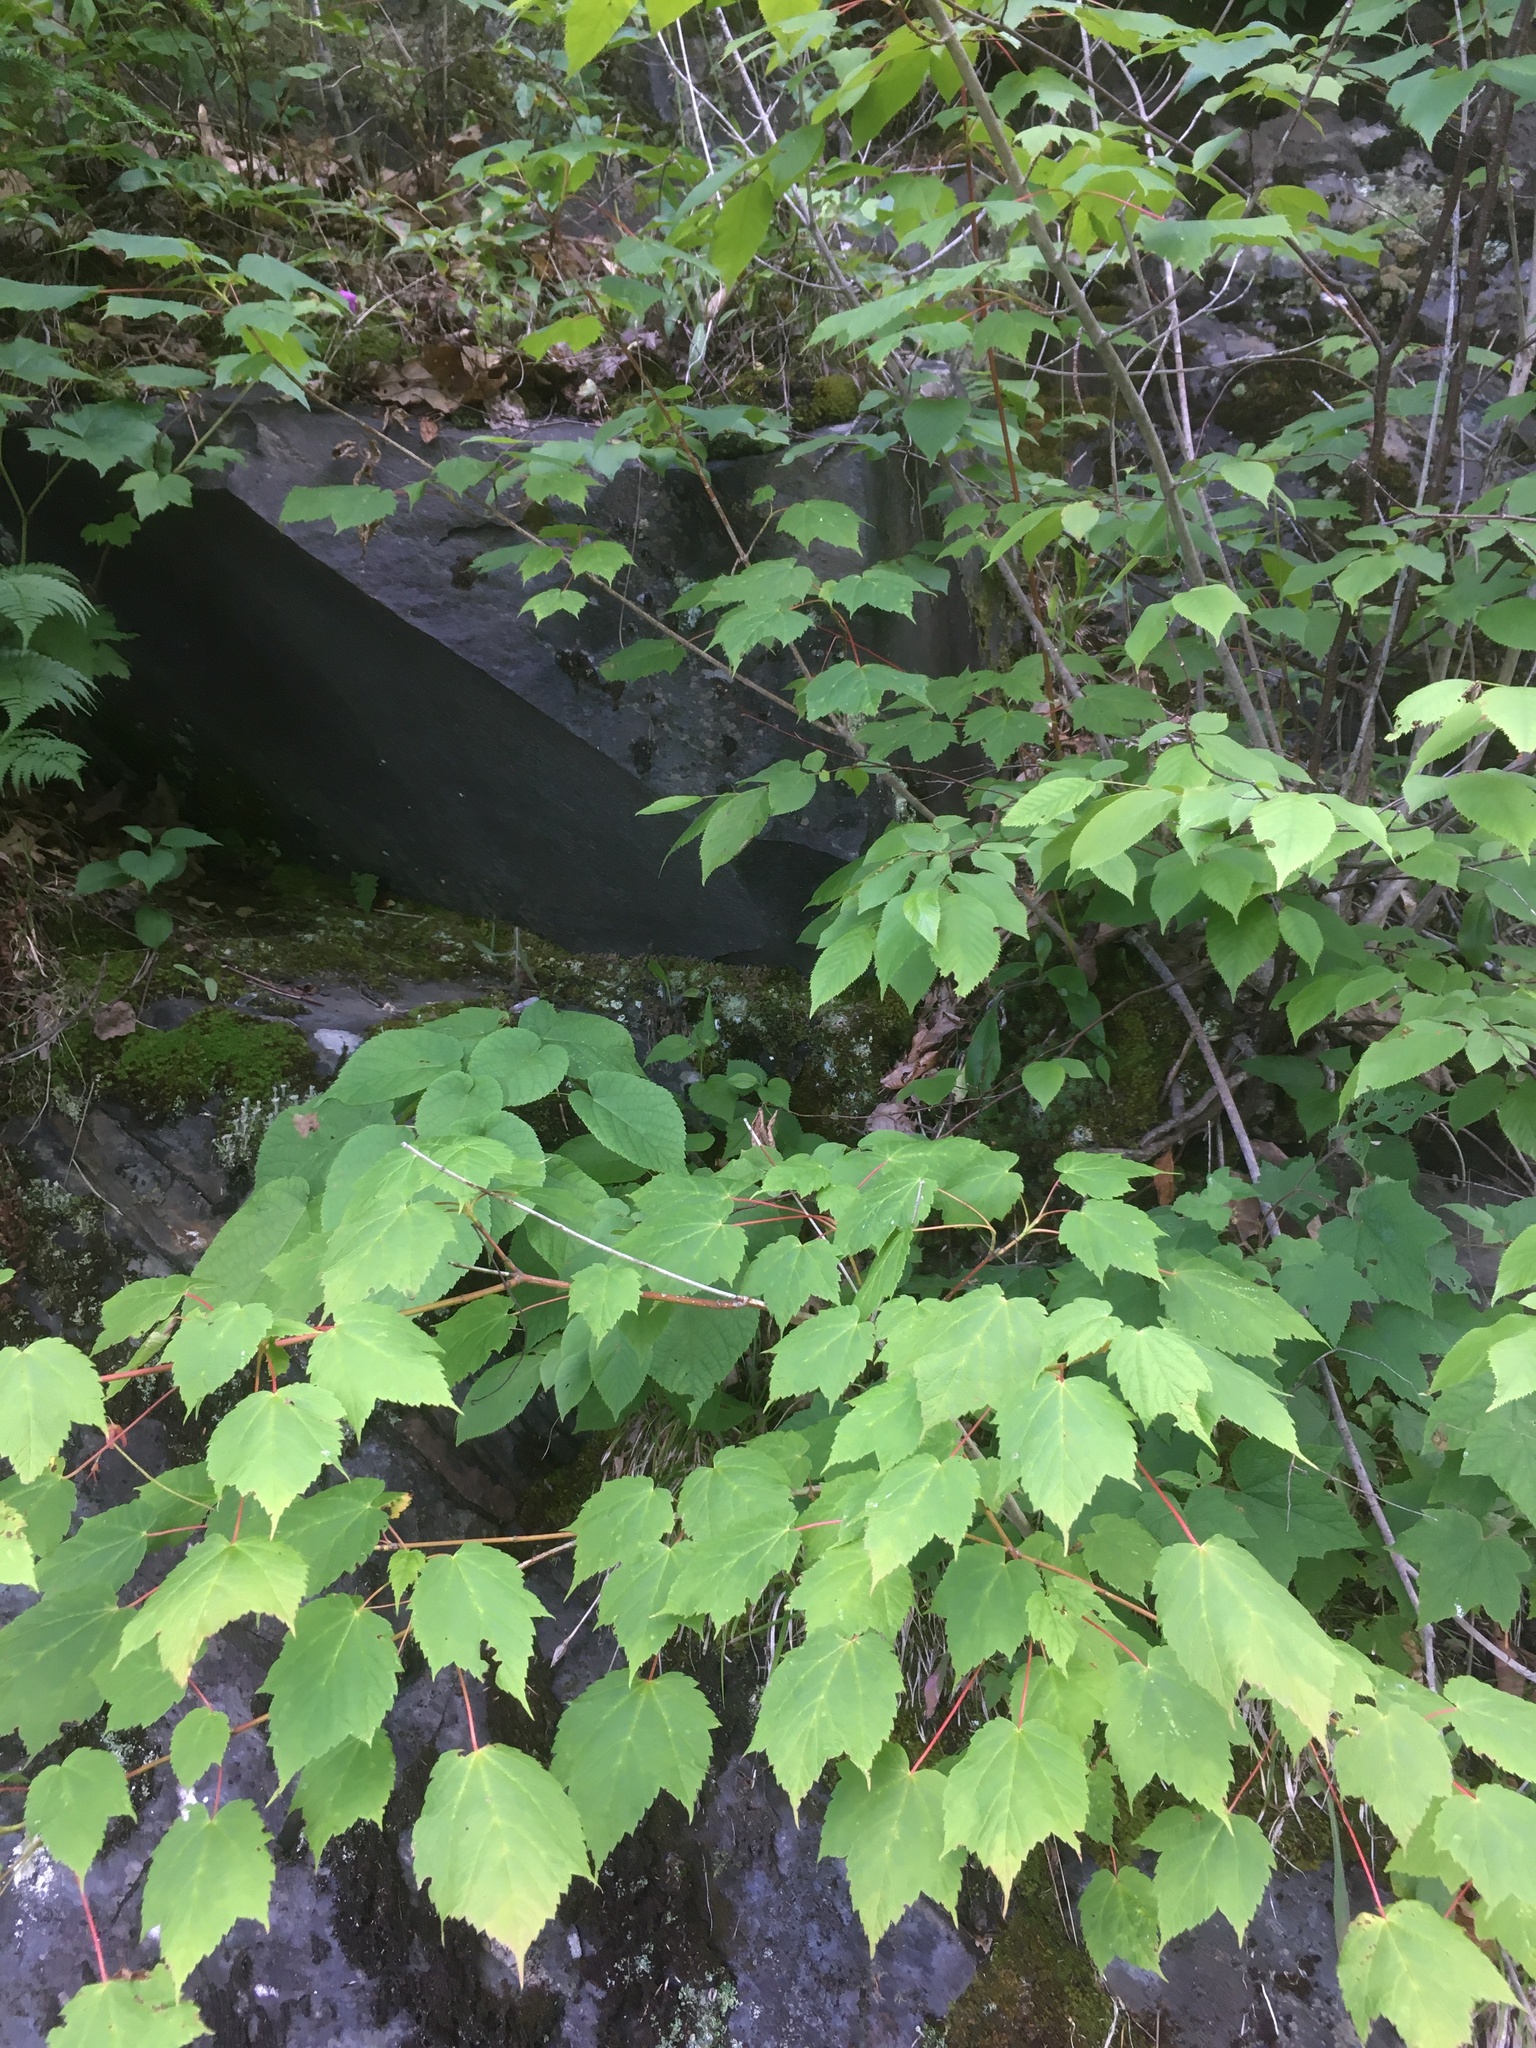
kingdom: Plantae
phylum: Tracheophyta
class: Magnoliopsida
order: Sapindales
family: Sapindaceae
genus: Acer
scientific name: Acer spicatum
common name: Mountain maple
